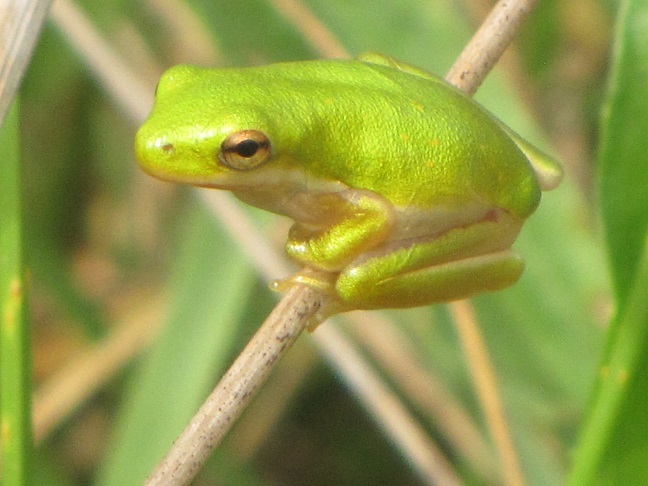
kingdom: Animalia
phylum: Chordata
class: Amphibia
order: Anura
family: Hylidae
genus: Dryophytes
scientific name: Dryophytes cinereus
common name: Green treefrog
